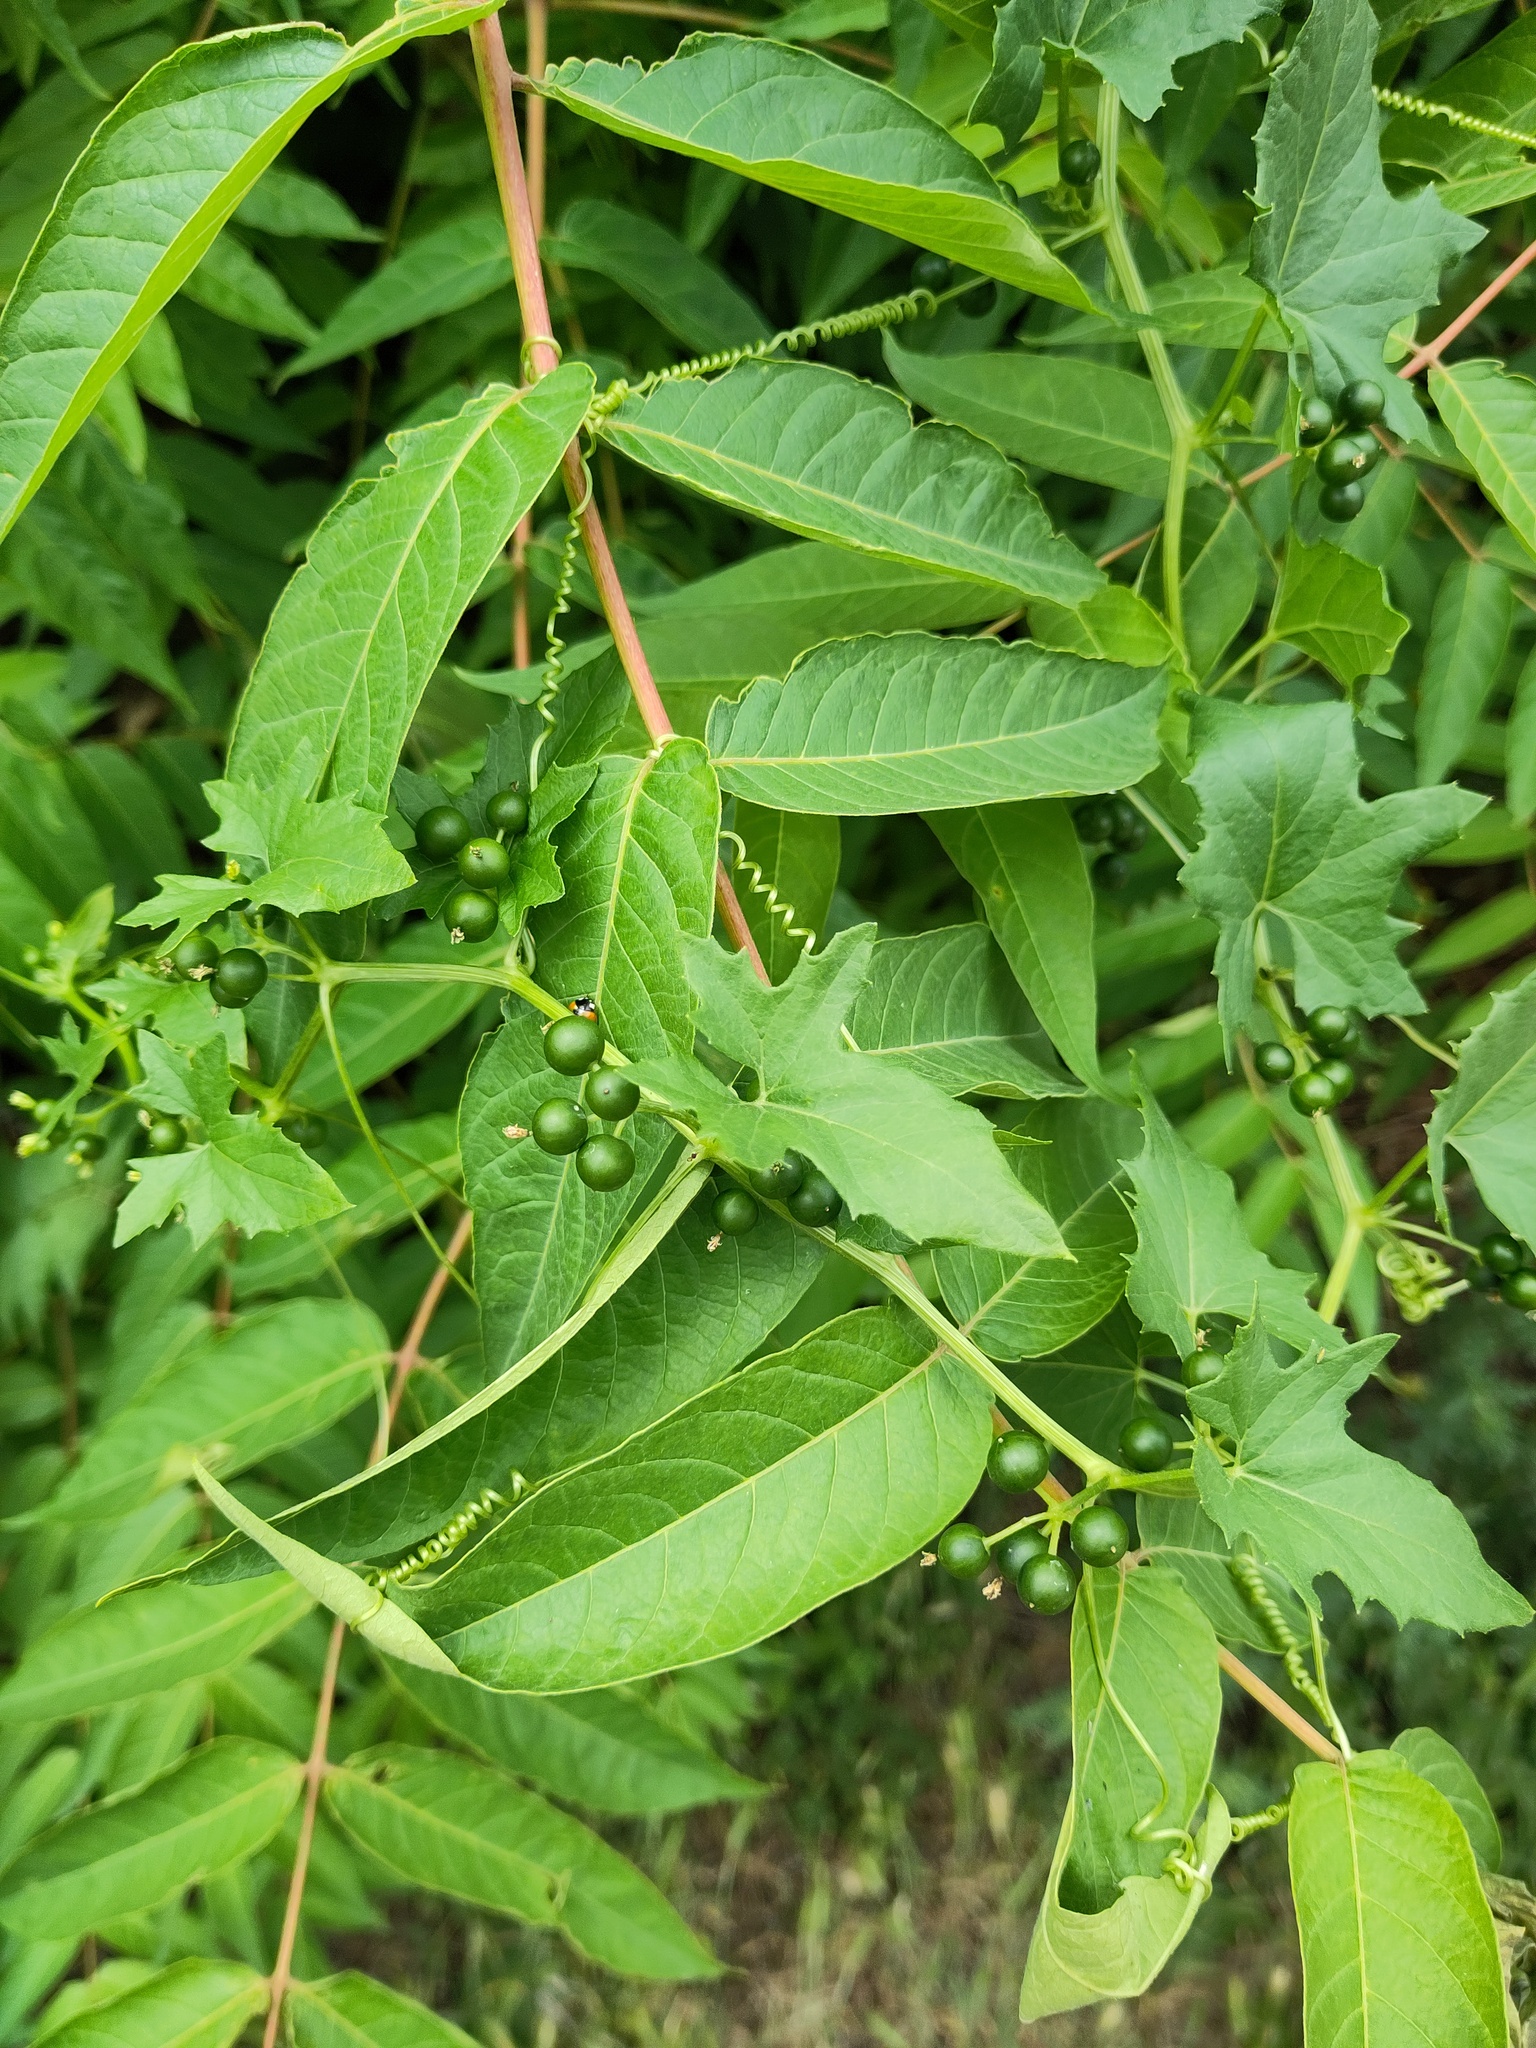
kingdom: Plantae
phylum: Tracheophyta
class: Magnoliopsida
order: Sapindales
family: Simaroubaceae
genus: Ailanthus
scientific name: Ailanthus altissima
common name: Tree-of-heaven
